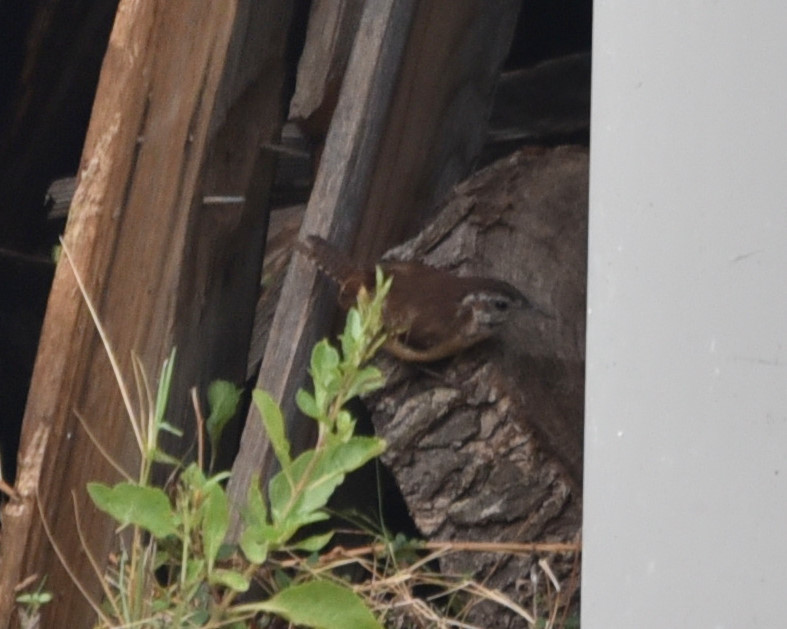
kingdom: Animalia
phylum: Chordata
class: Aves
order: Passeriformes
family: Troglodytidae
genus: Thryothorus
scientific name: Thryothorus ludovicianus
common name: Carolina wren
